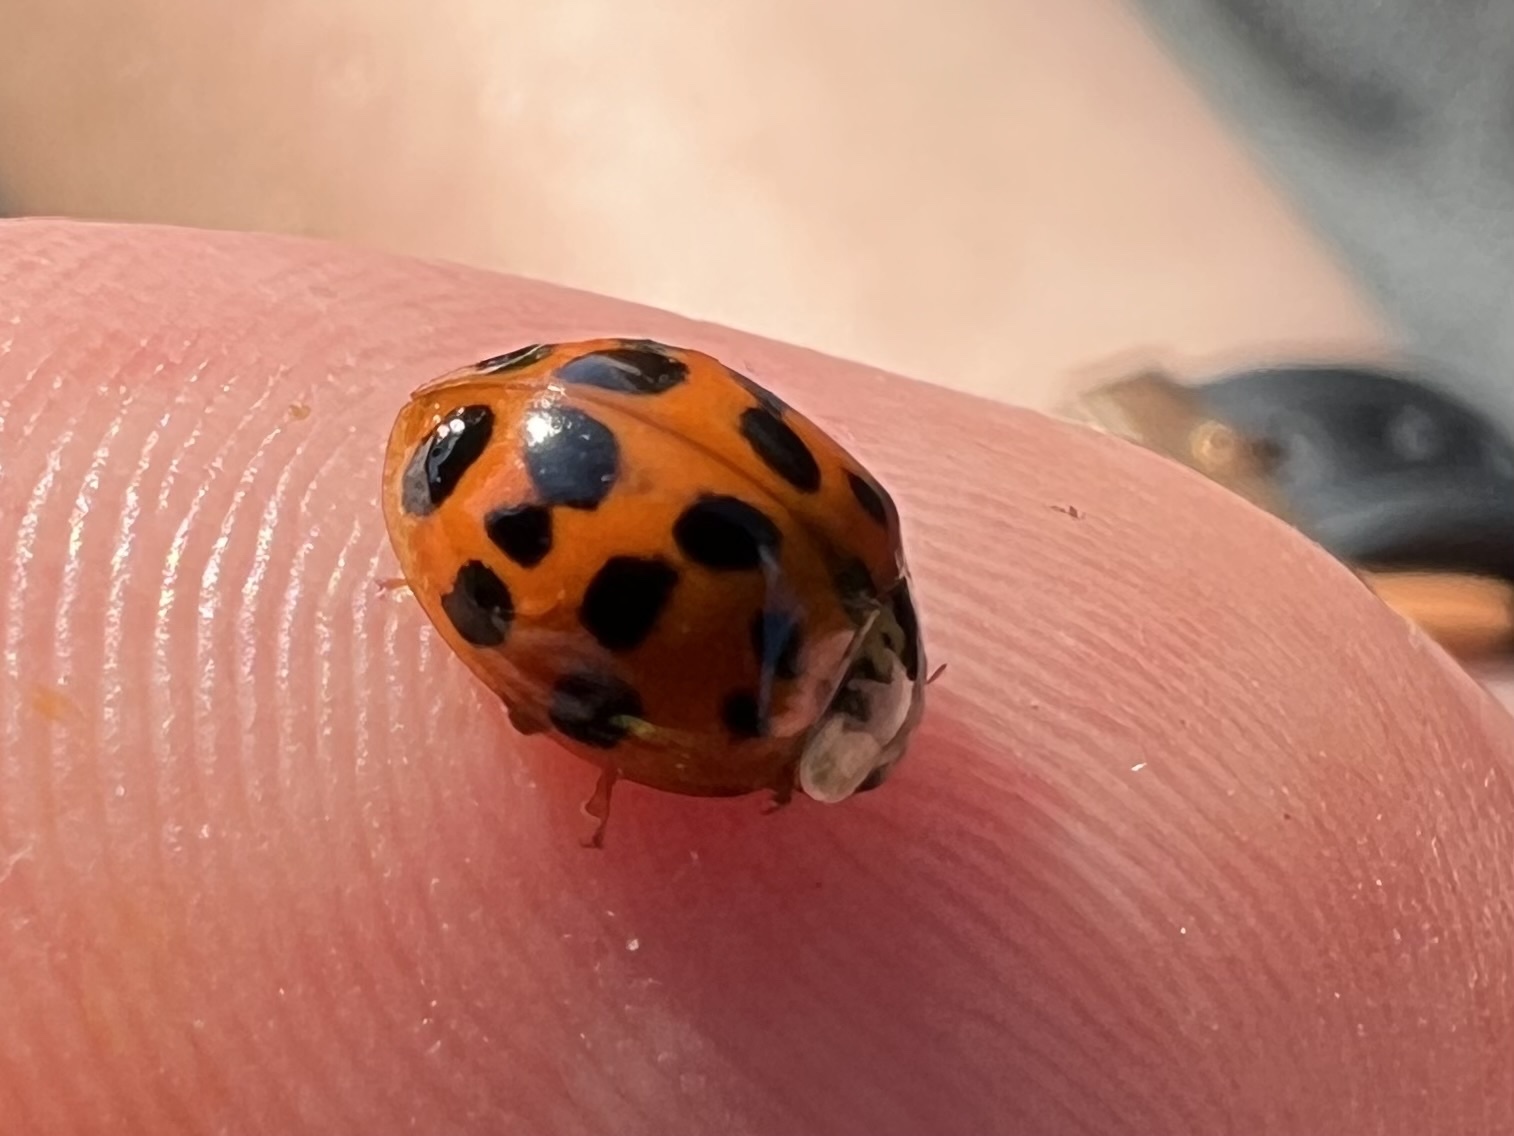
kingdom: Animalia
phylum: Arthropoda
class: Insecta
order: Coleoptera
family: Coccinellidae
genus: Harmonia
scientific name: Harmonia axyridis
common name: Harlequin ladybird
